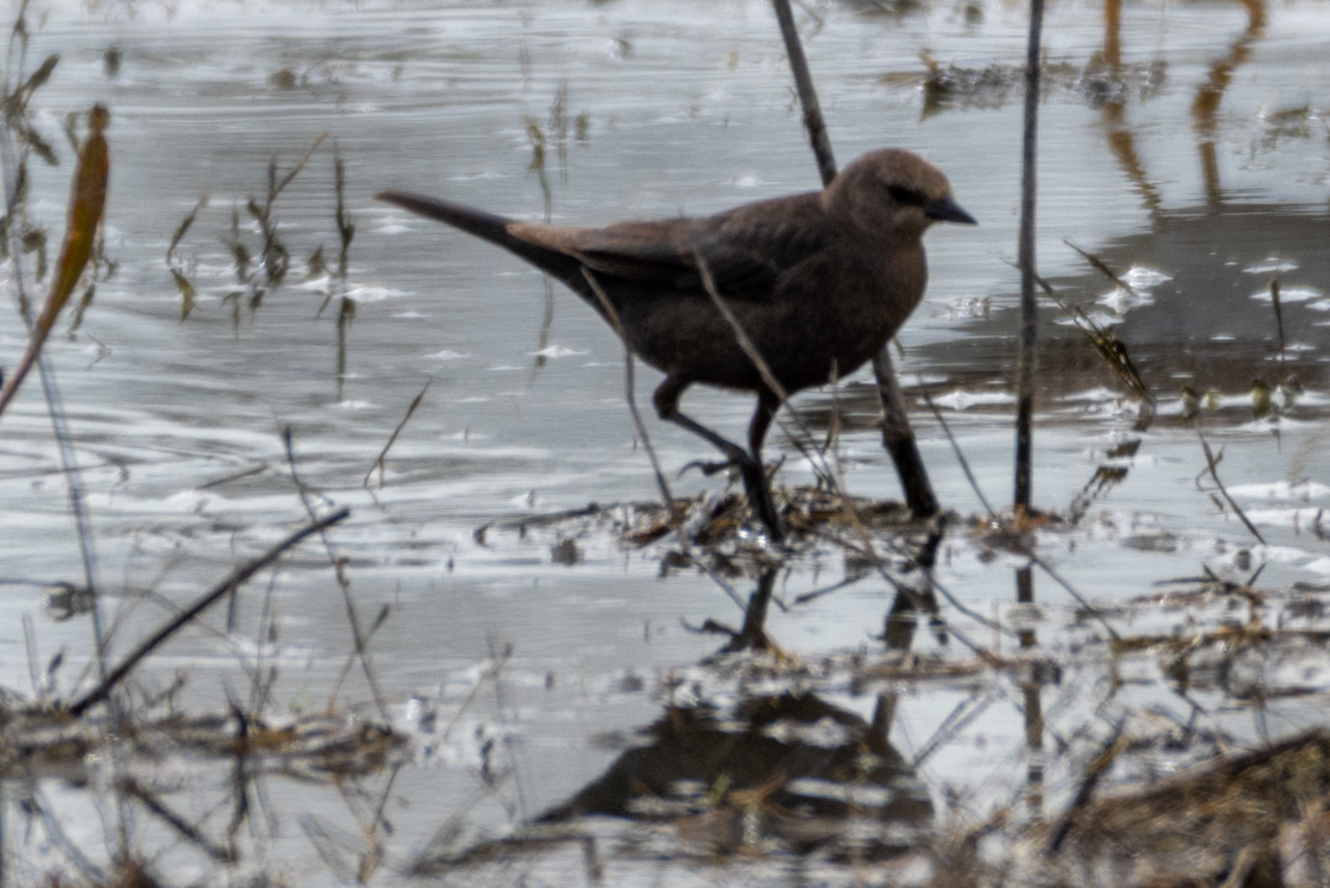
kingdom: Animalia
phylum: Chordata
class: Aves
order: Passeriformes
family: Icteridae
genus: Euphagus
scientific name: Euphagus cyanocephalus
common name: Brewer's blackbird
